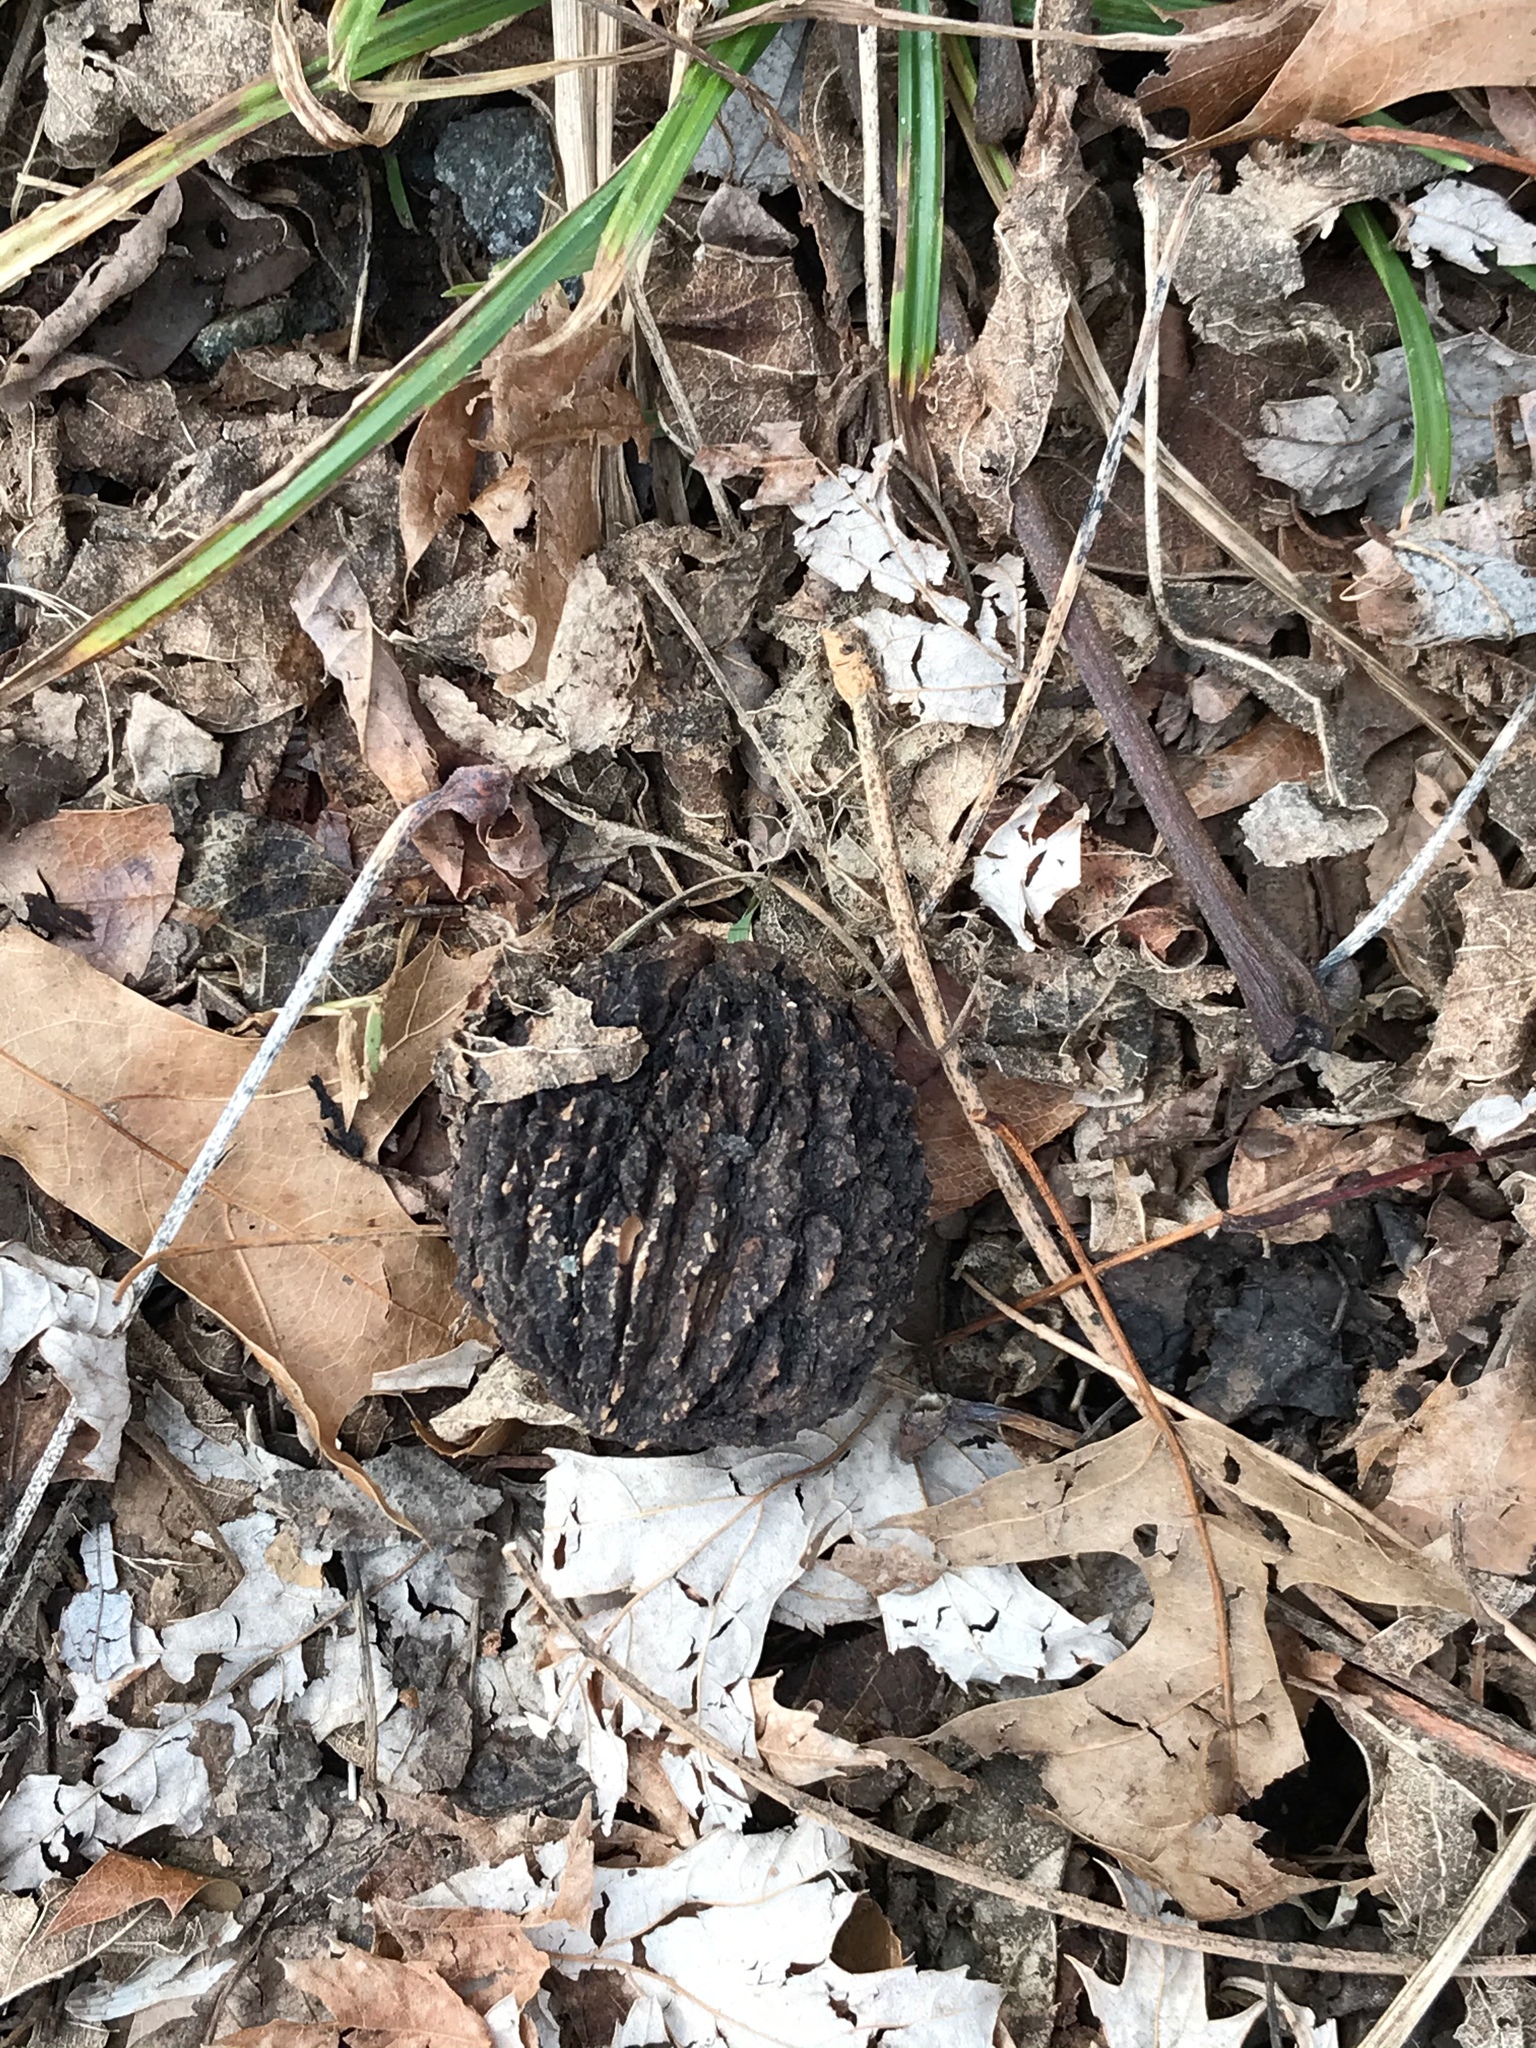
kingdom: Plantae
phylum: Tracheophyta
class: Magnoliopsida
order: Fagales
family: Juglandaceae
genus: Juglans
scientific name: Juglans nigra
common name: Black walnut
